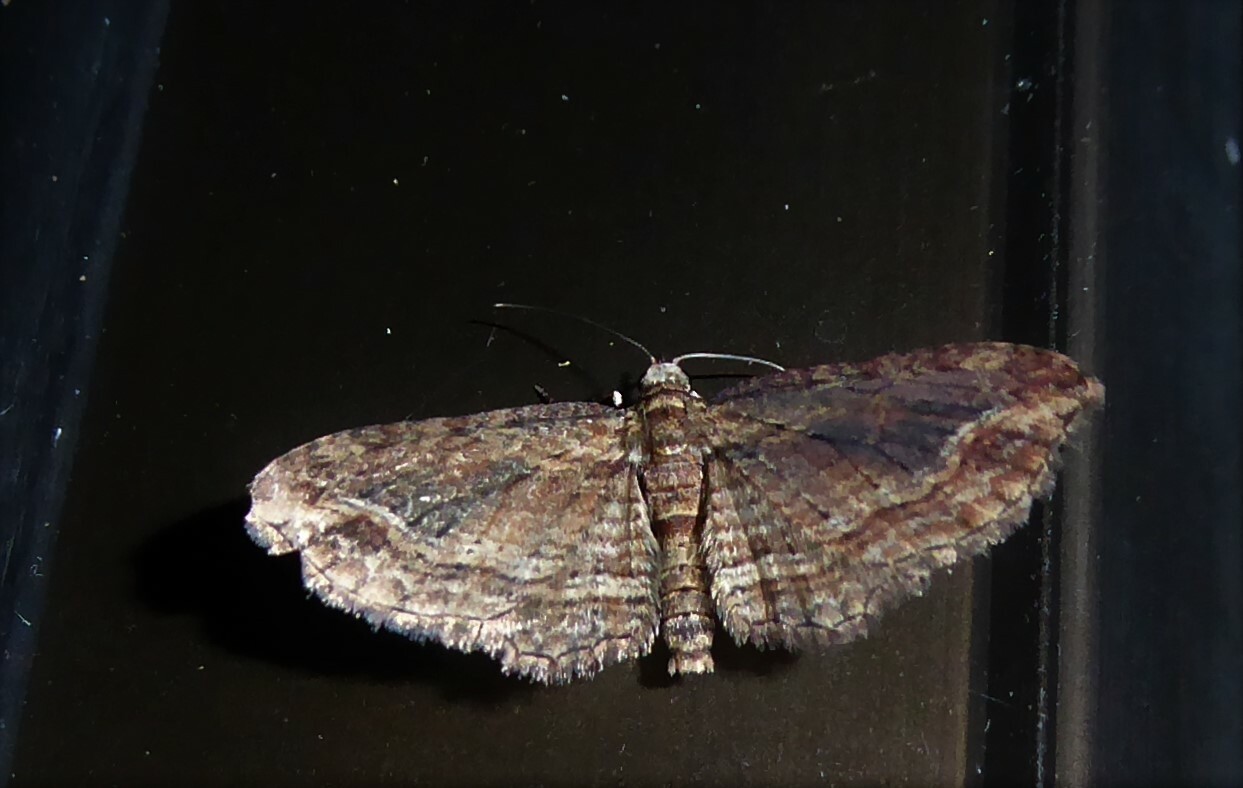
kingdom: Animalia
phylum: Arthropoda
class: Insecta
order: Lepidoptera
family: Geometridae
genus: Chloroclystis
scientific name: Chloroclystis filata
